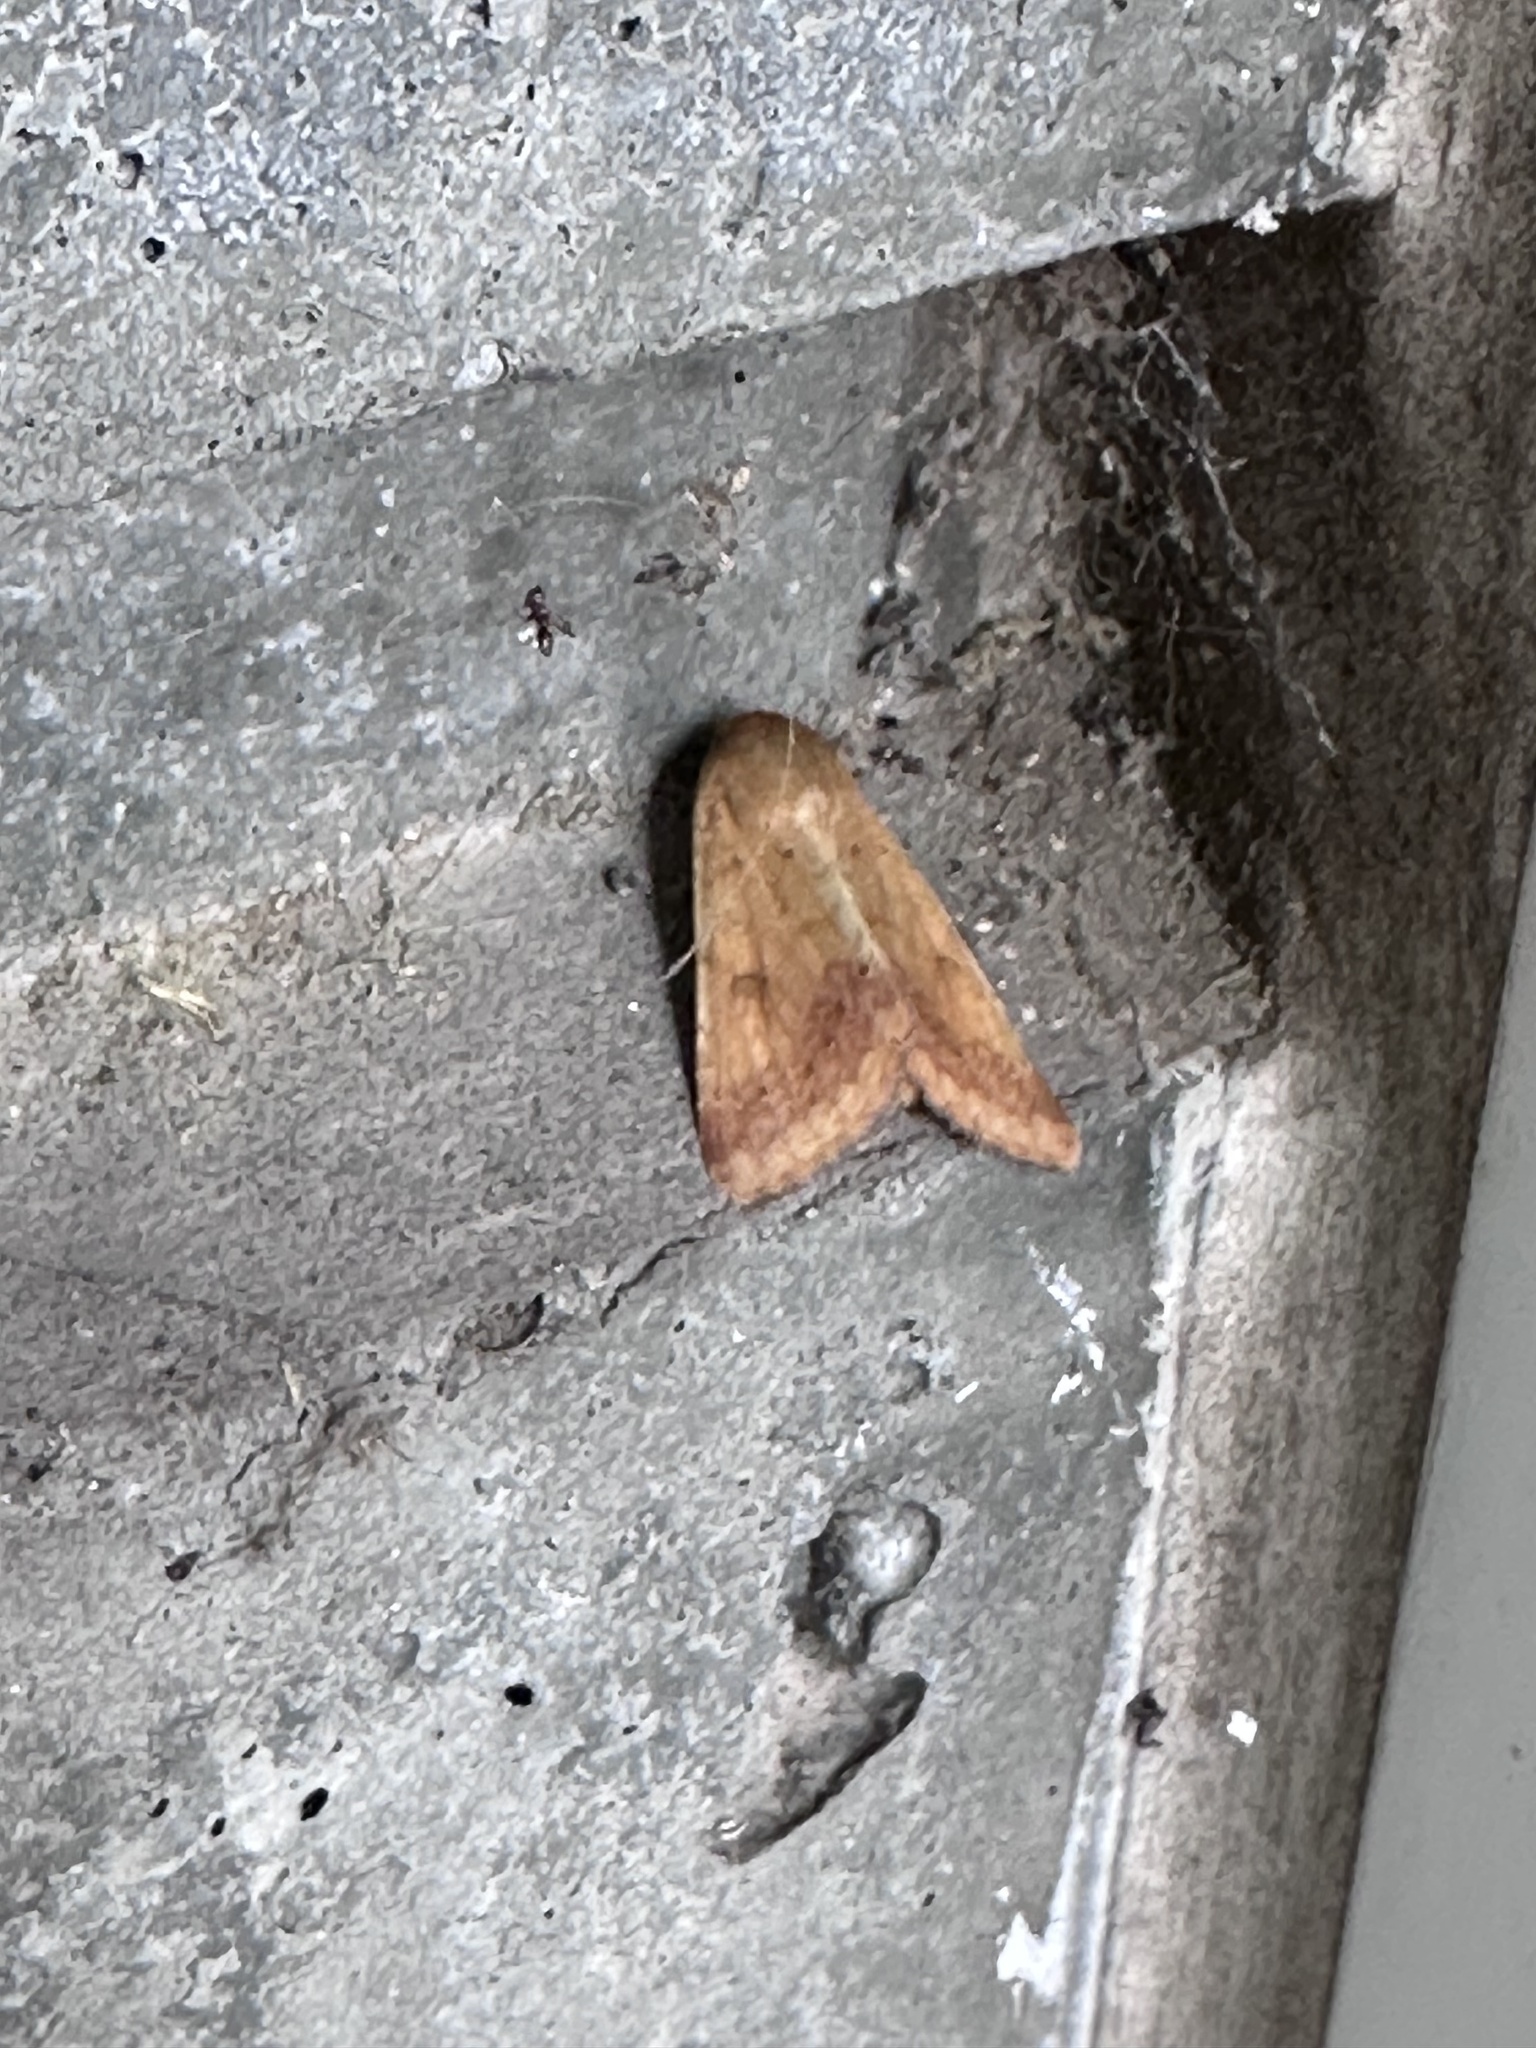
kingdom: Animalia
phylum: Arthropoda
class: Insecta
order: Lepidoptera
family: Noctuidae
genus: Helicoverpa
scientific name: Helicoverpa zea
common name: Bollworm
